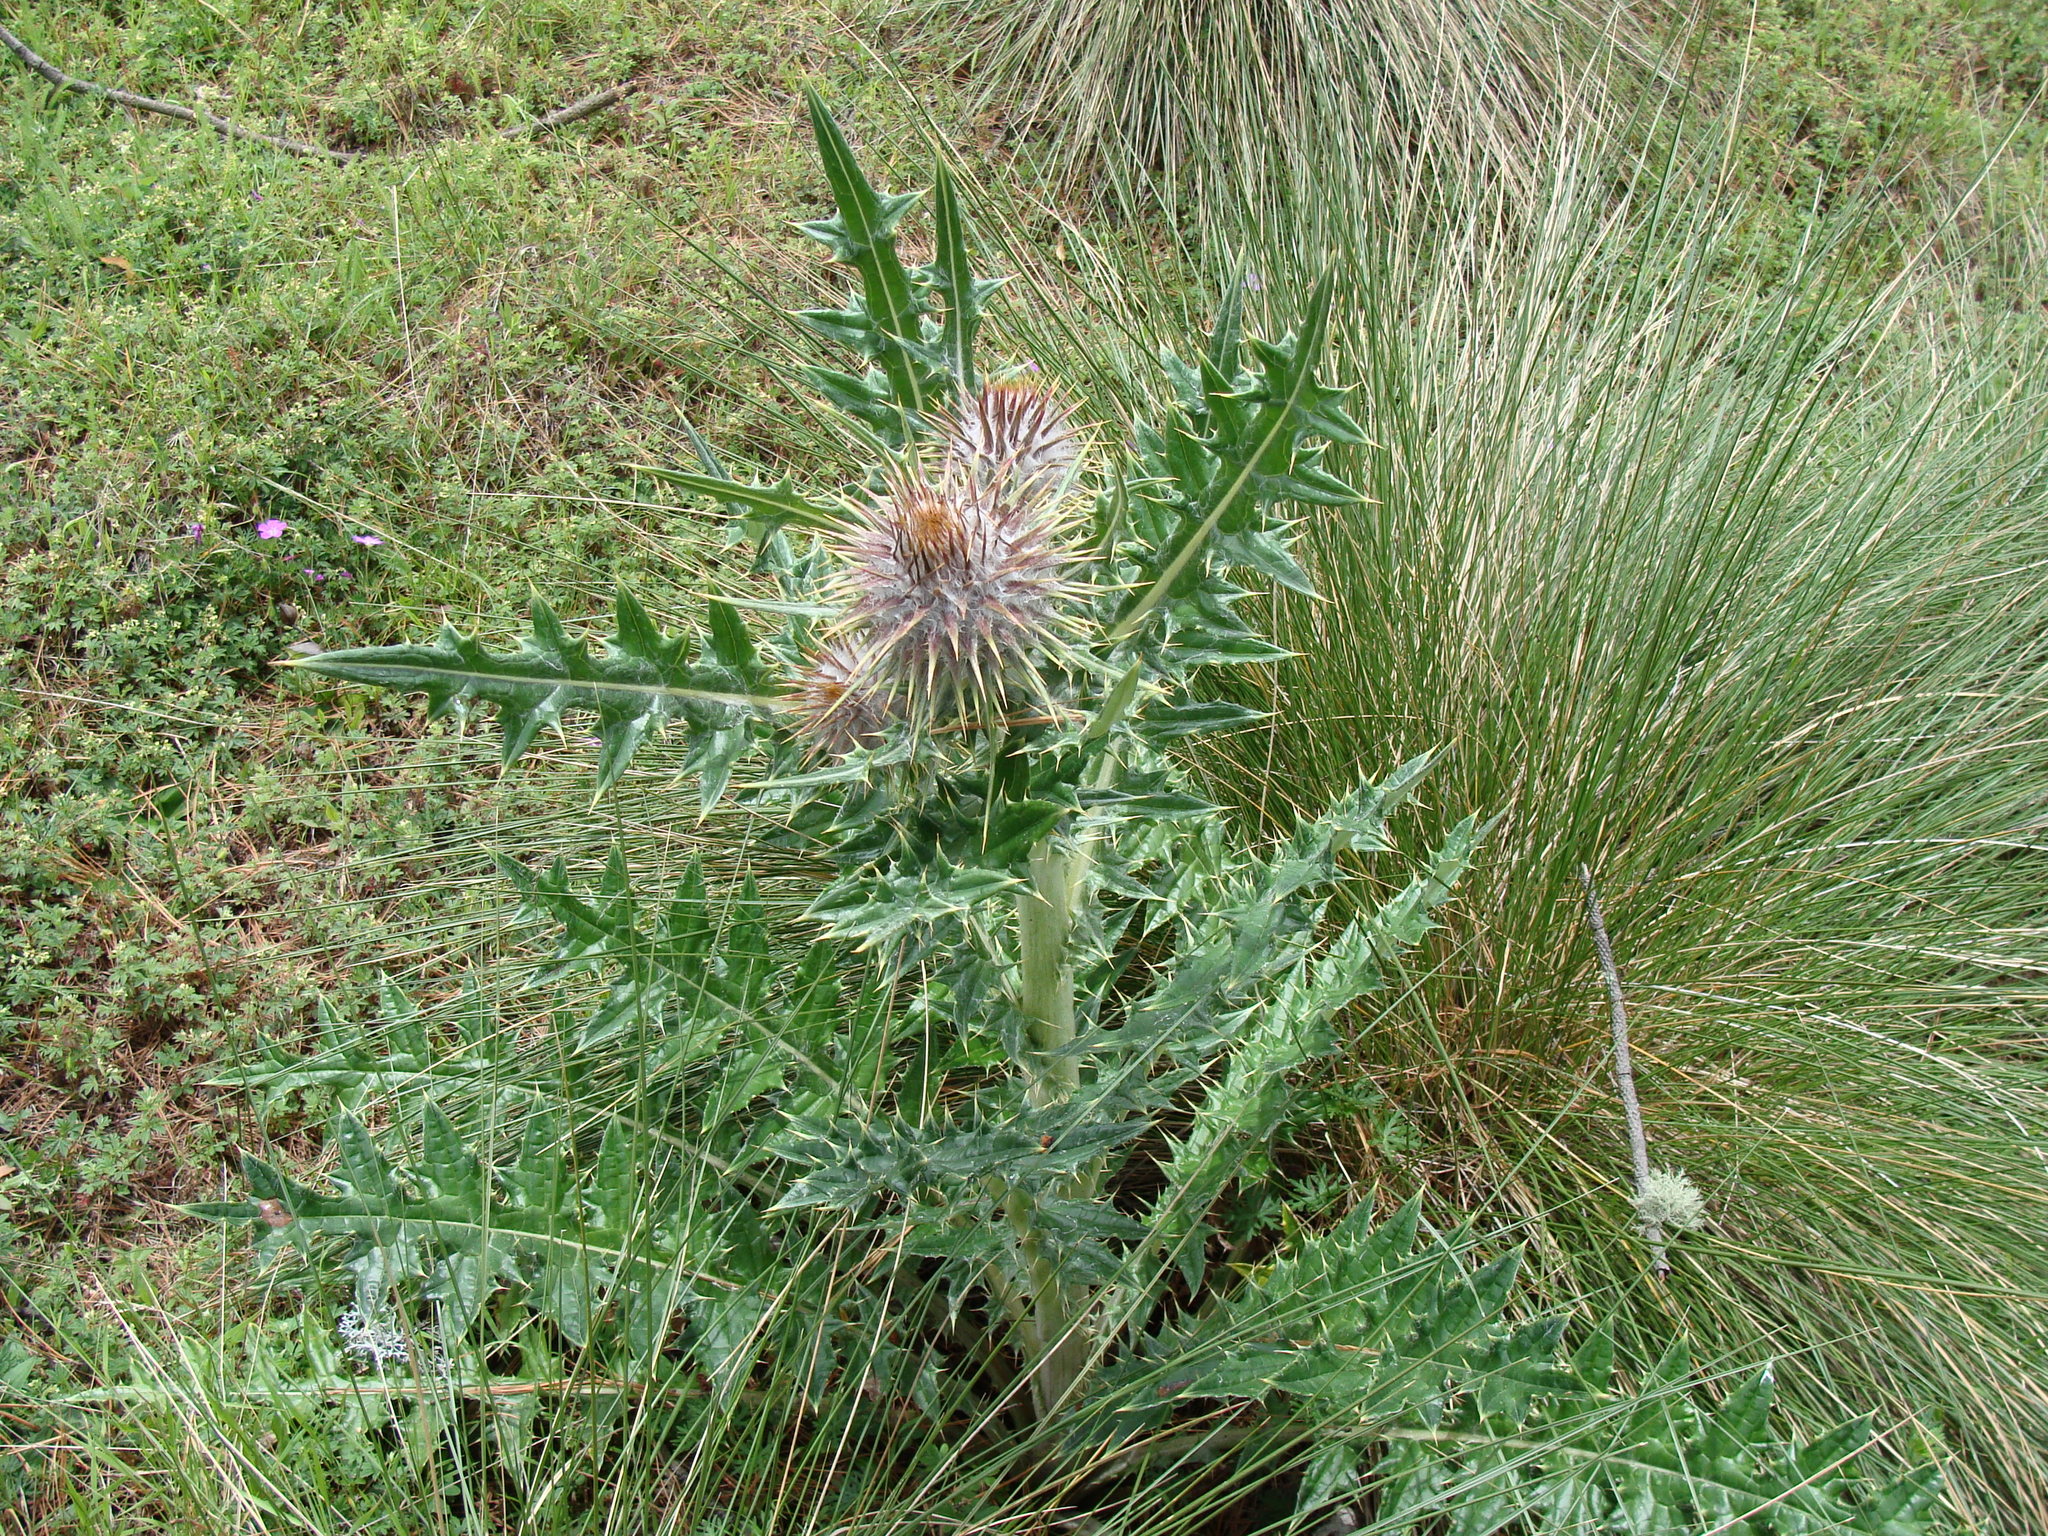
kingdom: Plantae
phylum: Tracheophyta
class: Magnoliopsida
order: Asterales
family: Asteraceae
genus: Cirsium
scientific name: Cirsium ehrenbergii
